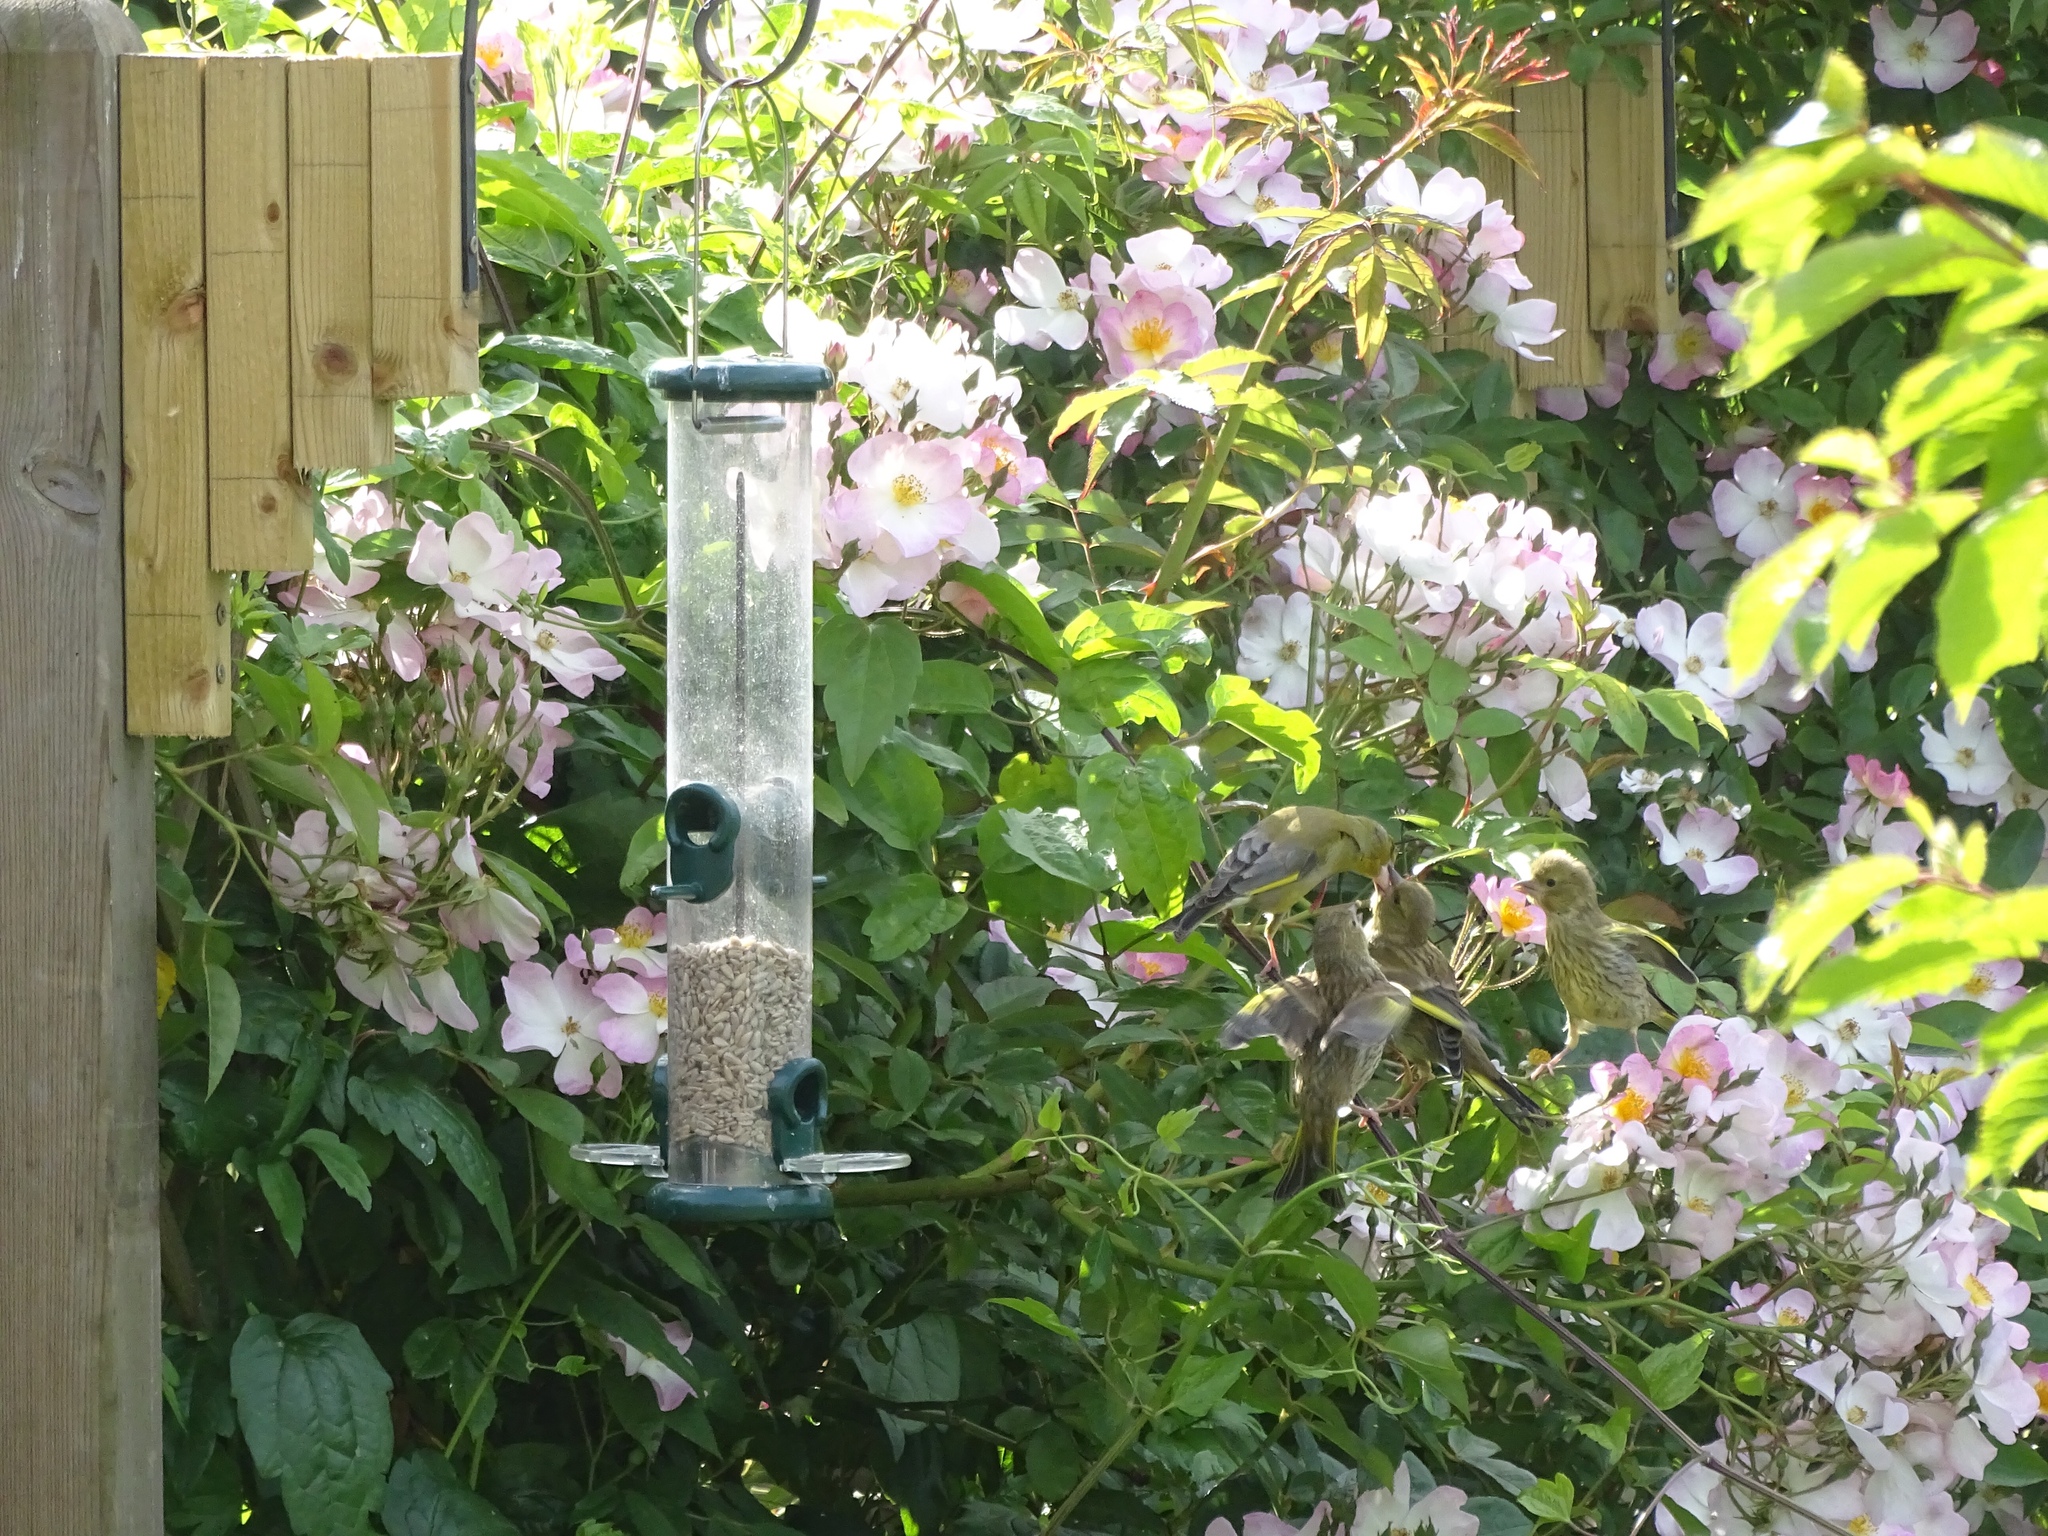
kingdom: Plantae
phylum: Tracheophyta
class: Liliopsida
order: Poales
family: Poaceae
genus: Chloris
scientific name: Chloris chloris
